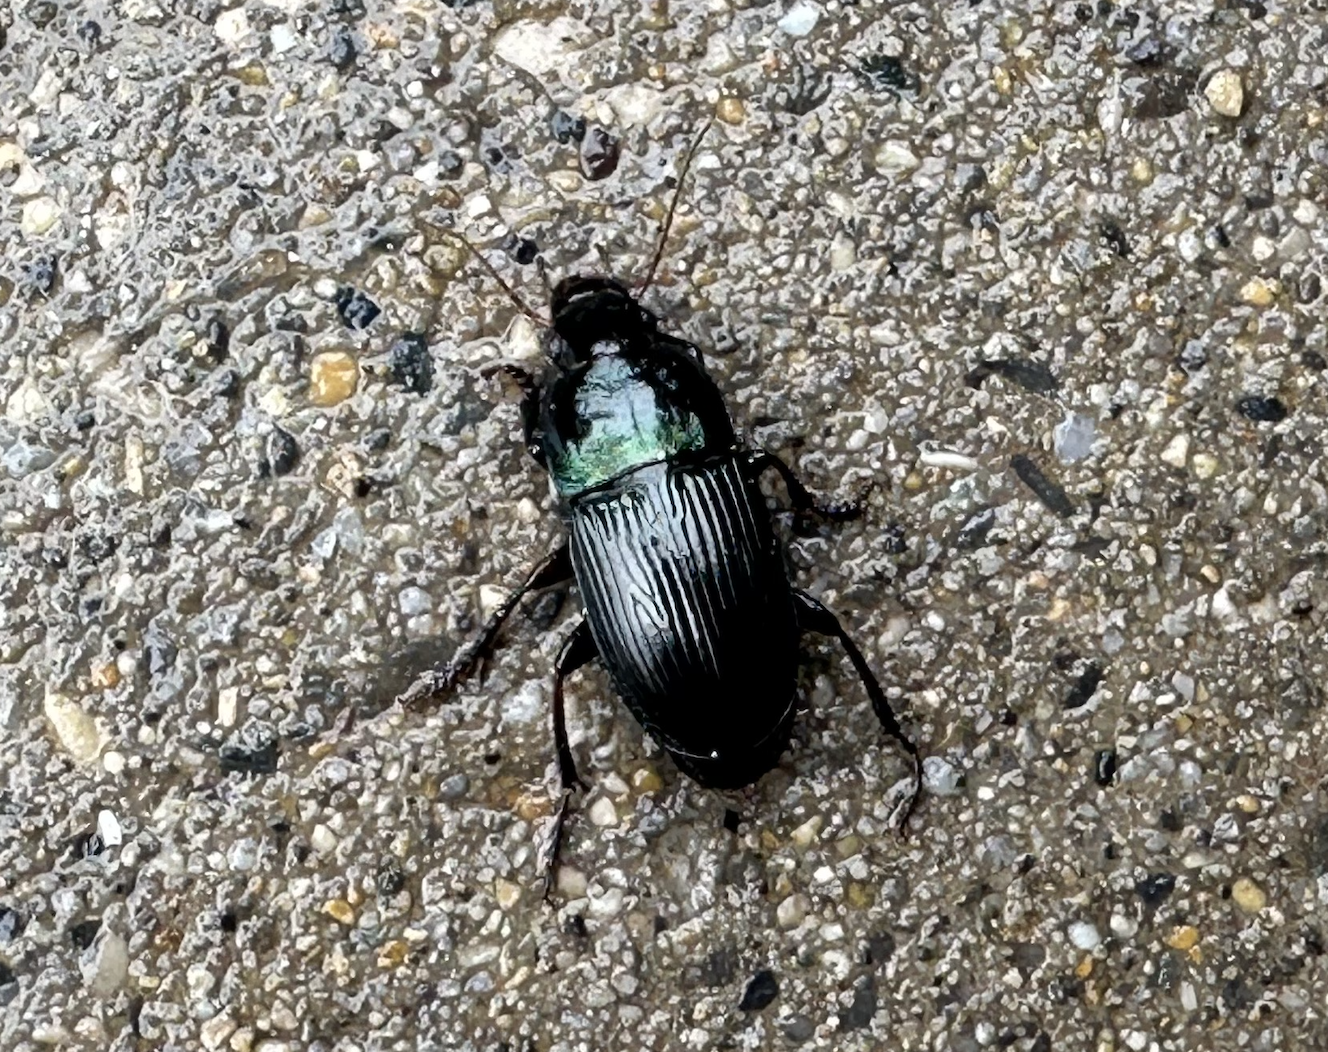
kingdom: Animalia
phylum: Arthropoda
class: Insecta
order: Coleoptera
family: Carabidae
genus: Harpalus
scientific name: Harpalus dimidiatus
